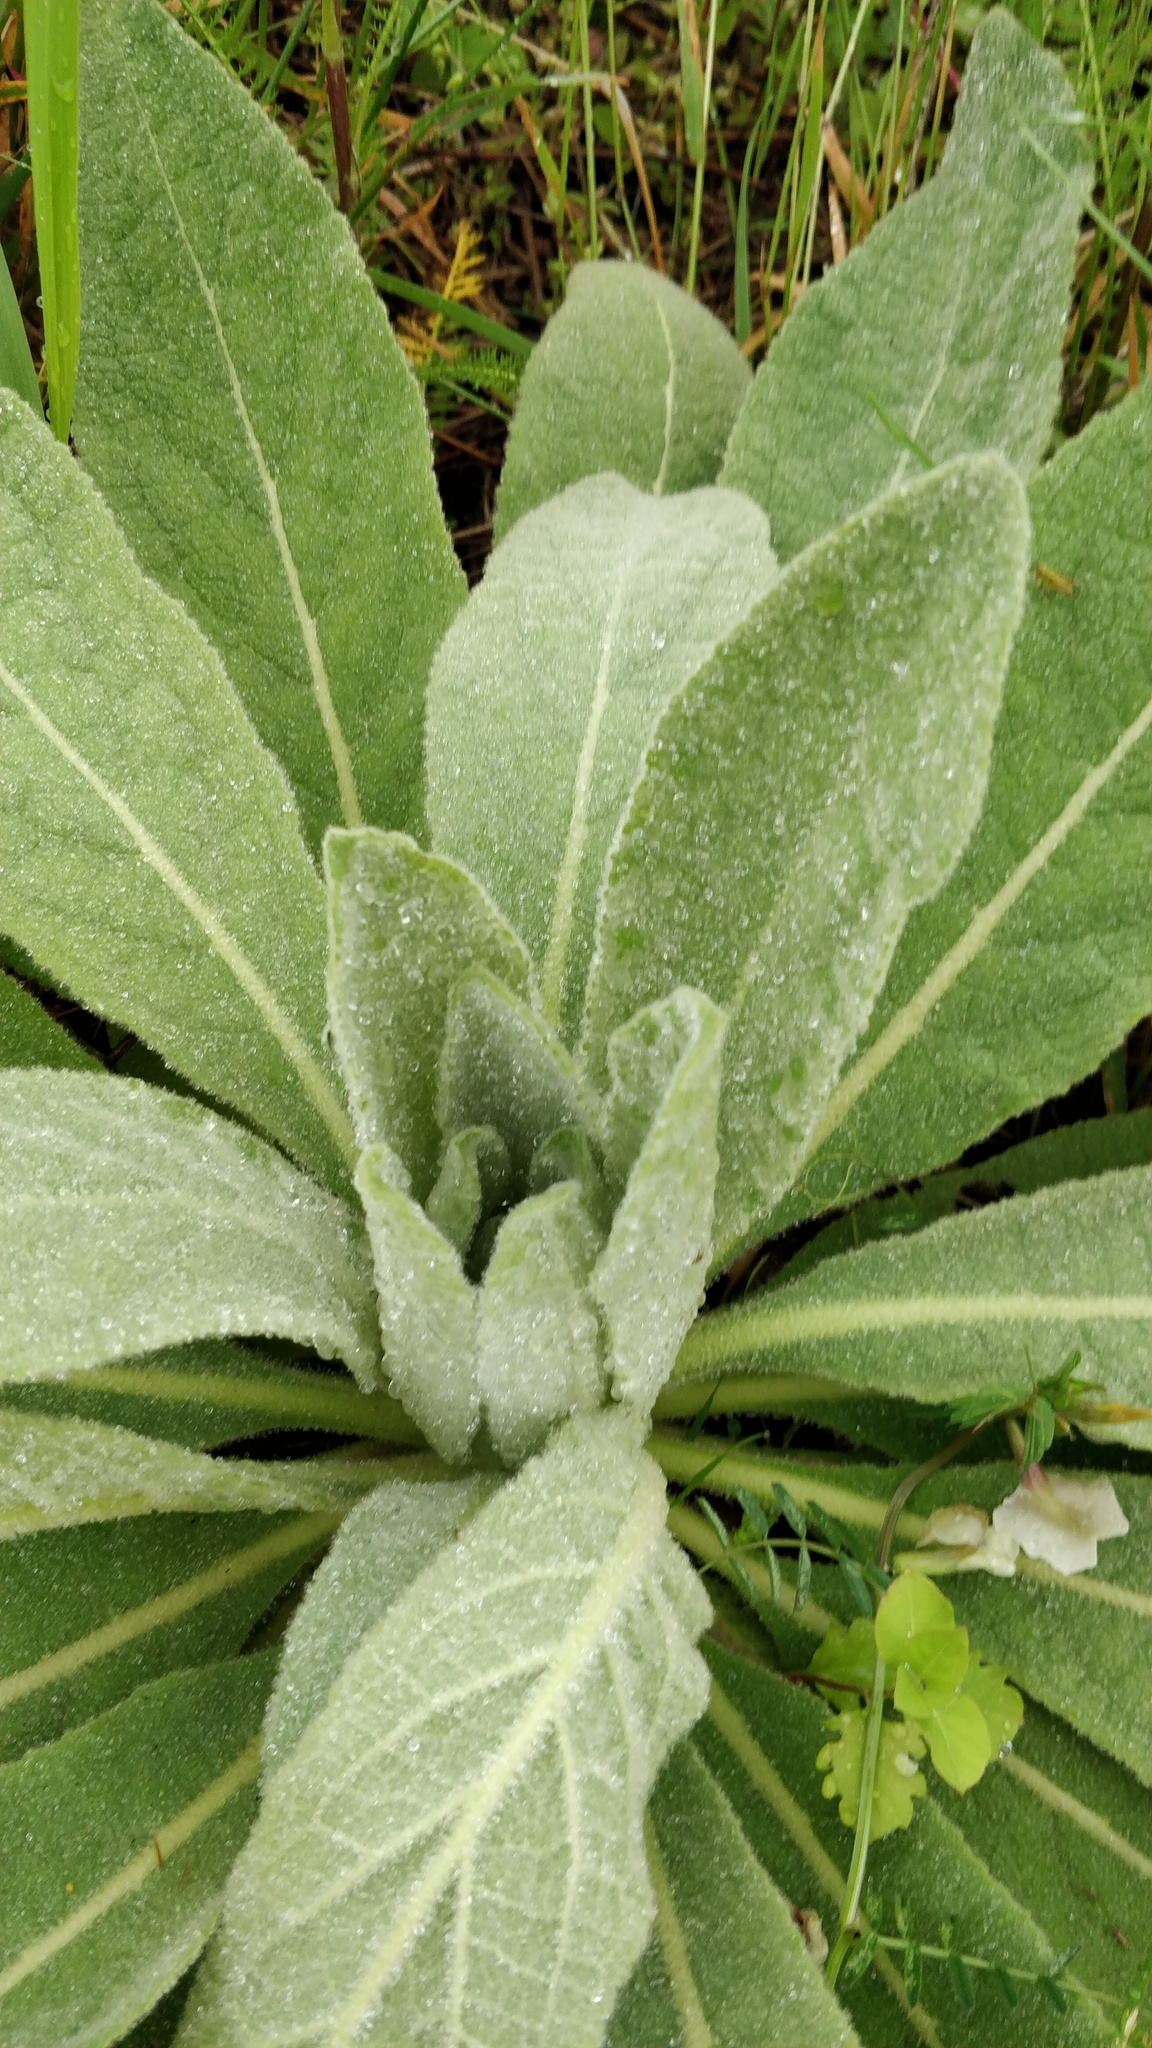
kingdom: Plantae
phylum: Tracheophyta
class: Magnoliopsida
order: Lamiales
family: Scrophulariaceae
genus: Verbascum
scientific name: Verbascum thapsus
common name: Common mullein
